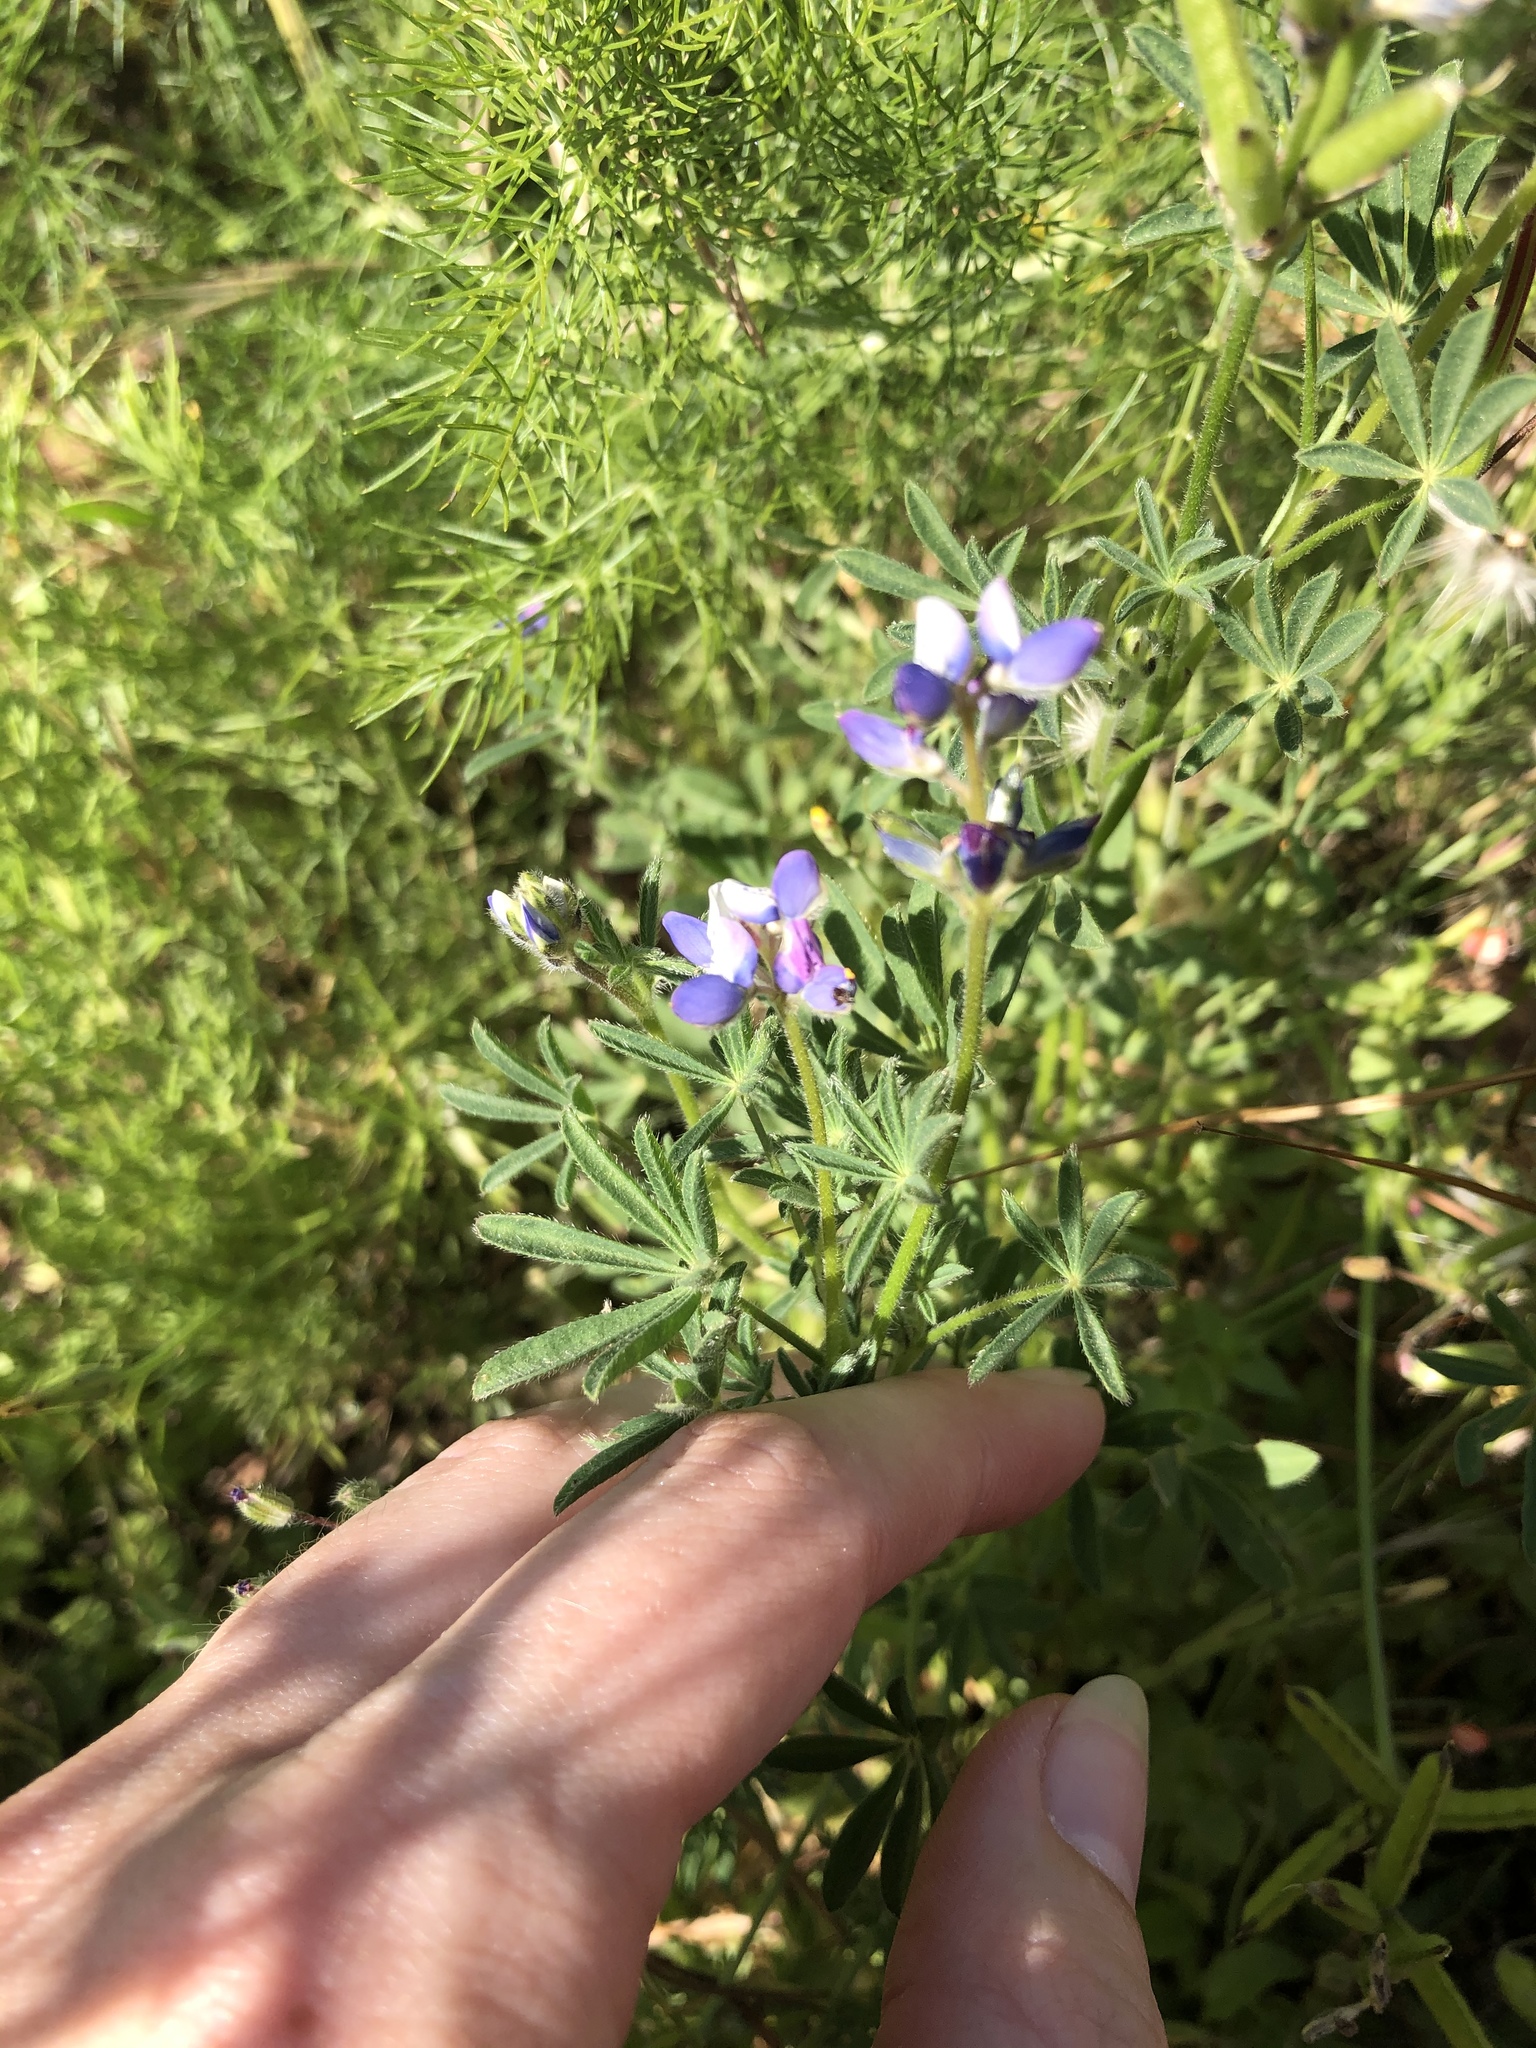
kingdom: Plantae
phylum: Tracheophyta
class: Magnoliopsida
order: Fabales
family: Fabaceae
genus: Lupinus
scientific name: Lupinus bicolor
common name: Miniature lupine
